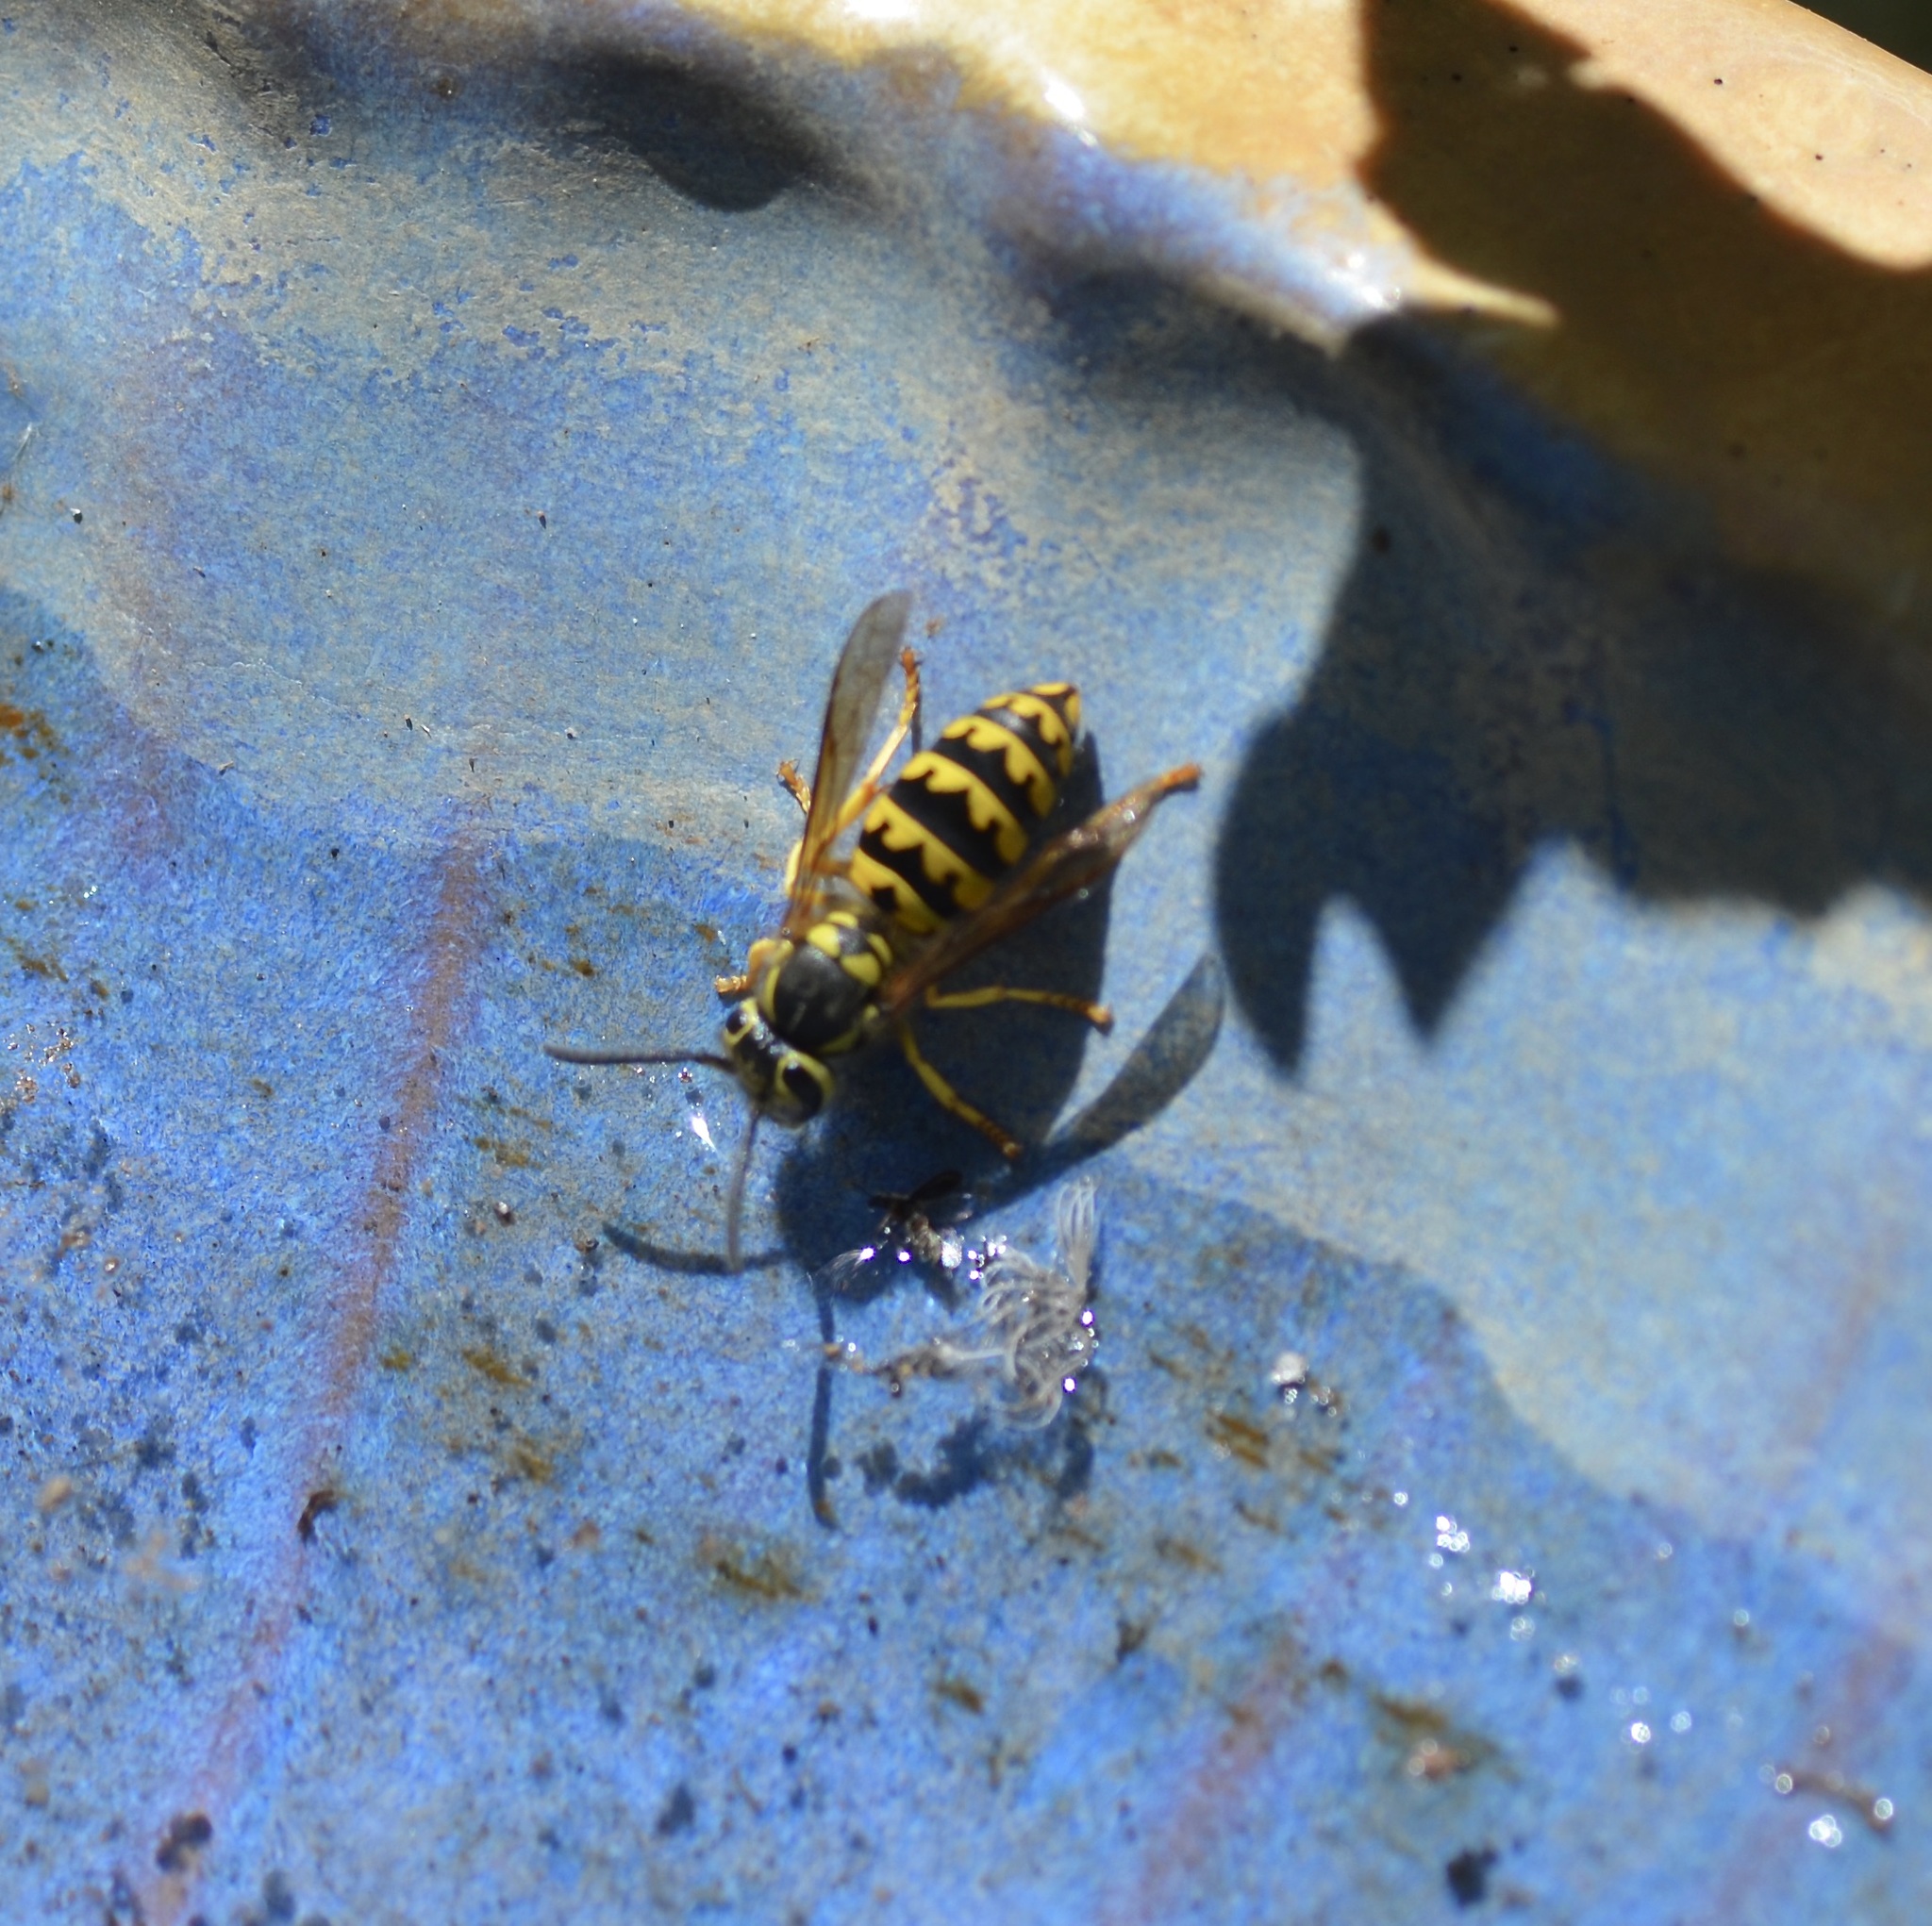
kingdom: Animalia
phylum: Arthropoda
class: Insecta
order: Hymenoptera
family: Vespidae
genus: Vespula
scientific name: Vespula pensylvanica
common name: Western yellowjacket
